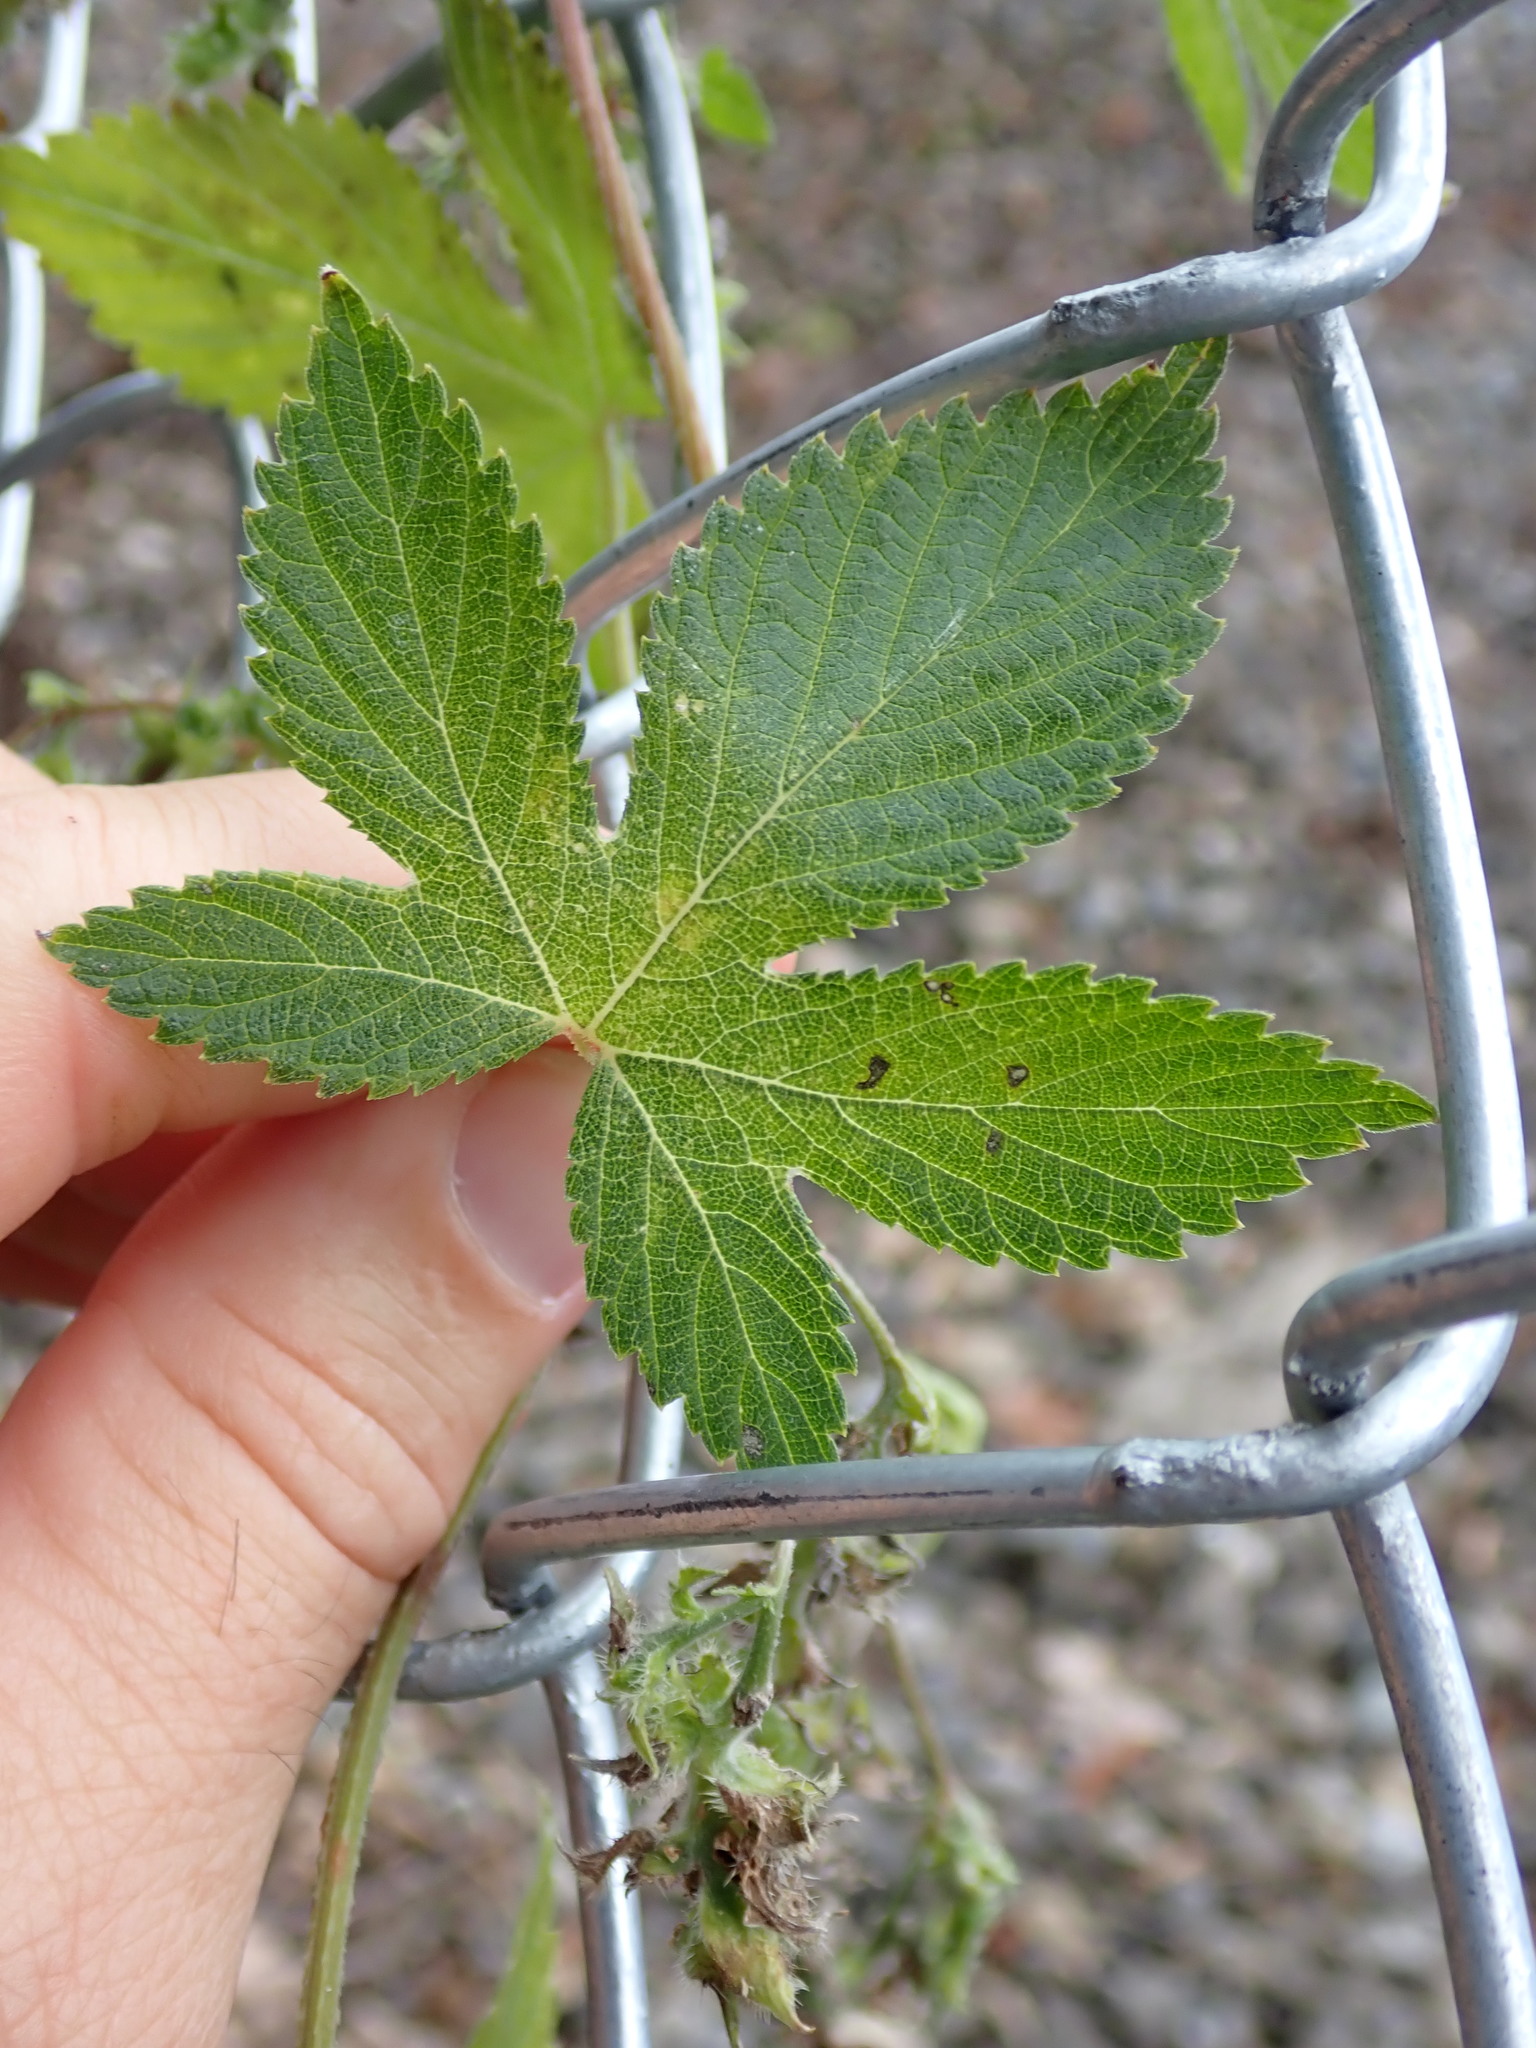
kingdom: Plantae
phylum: Tracheophyta
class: Magnoliopsida
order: Rosales
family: Cannabaceae
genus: Humulus
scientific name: Humulus scandens
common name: Japanese hop
